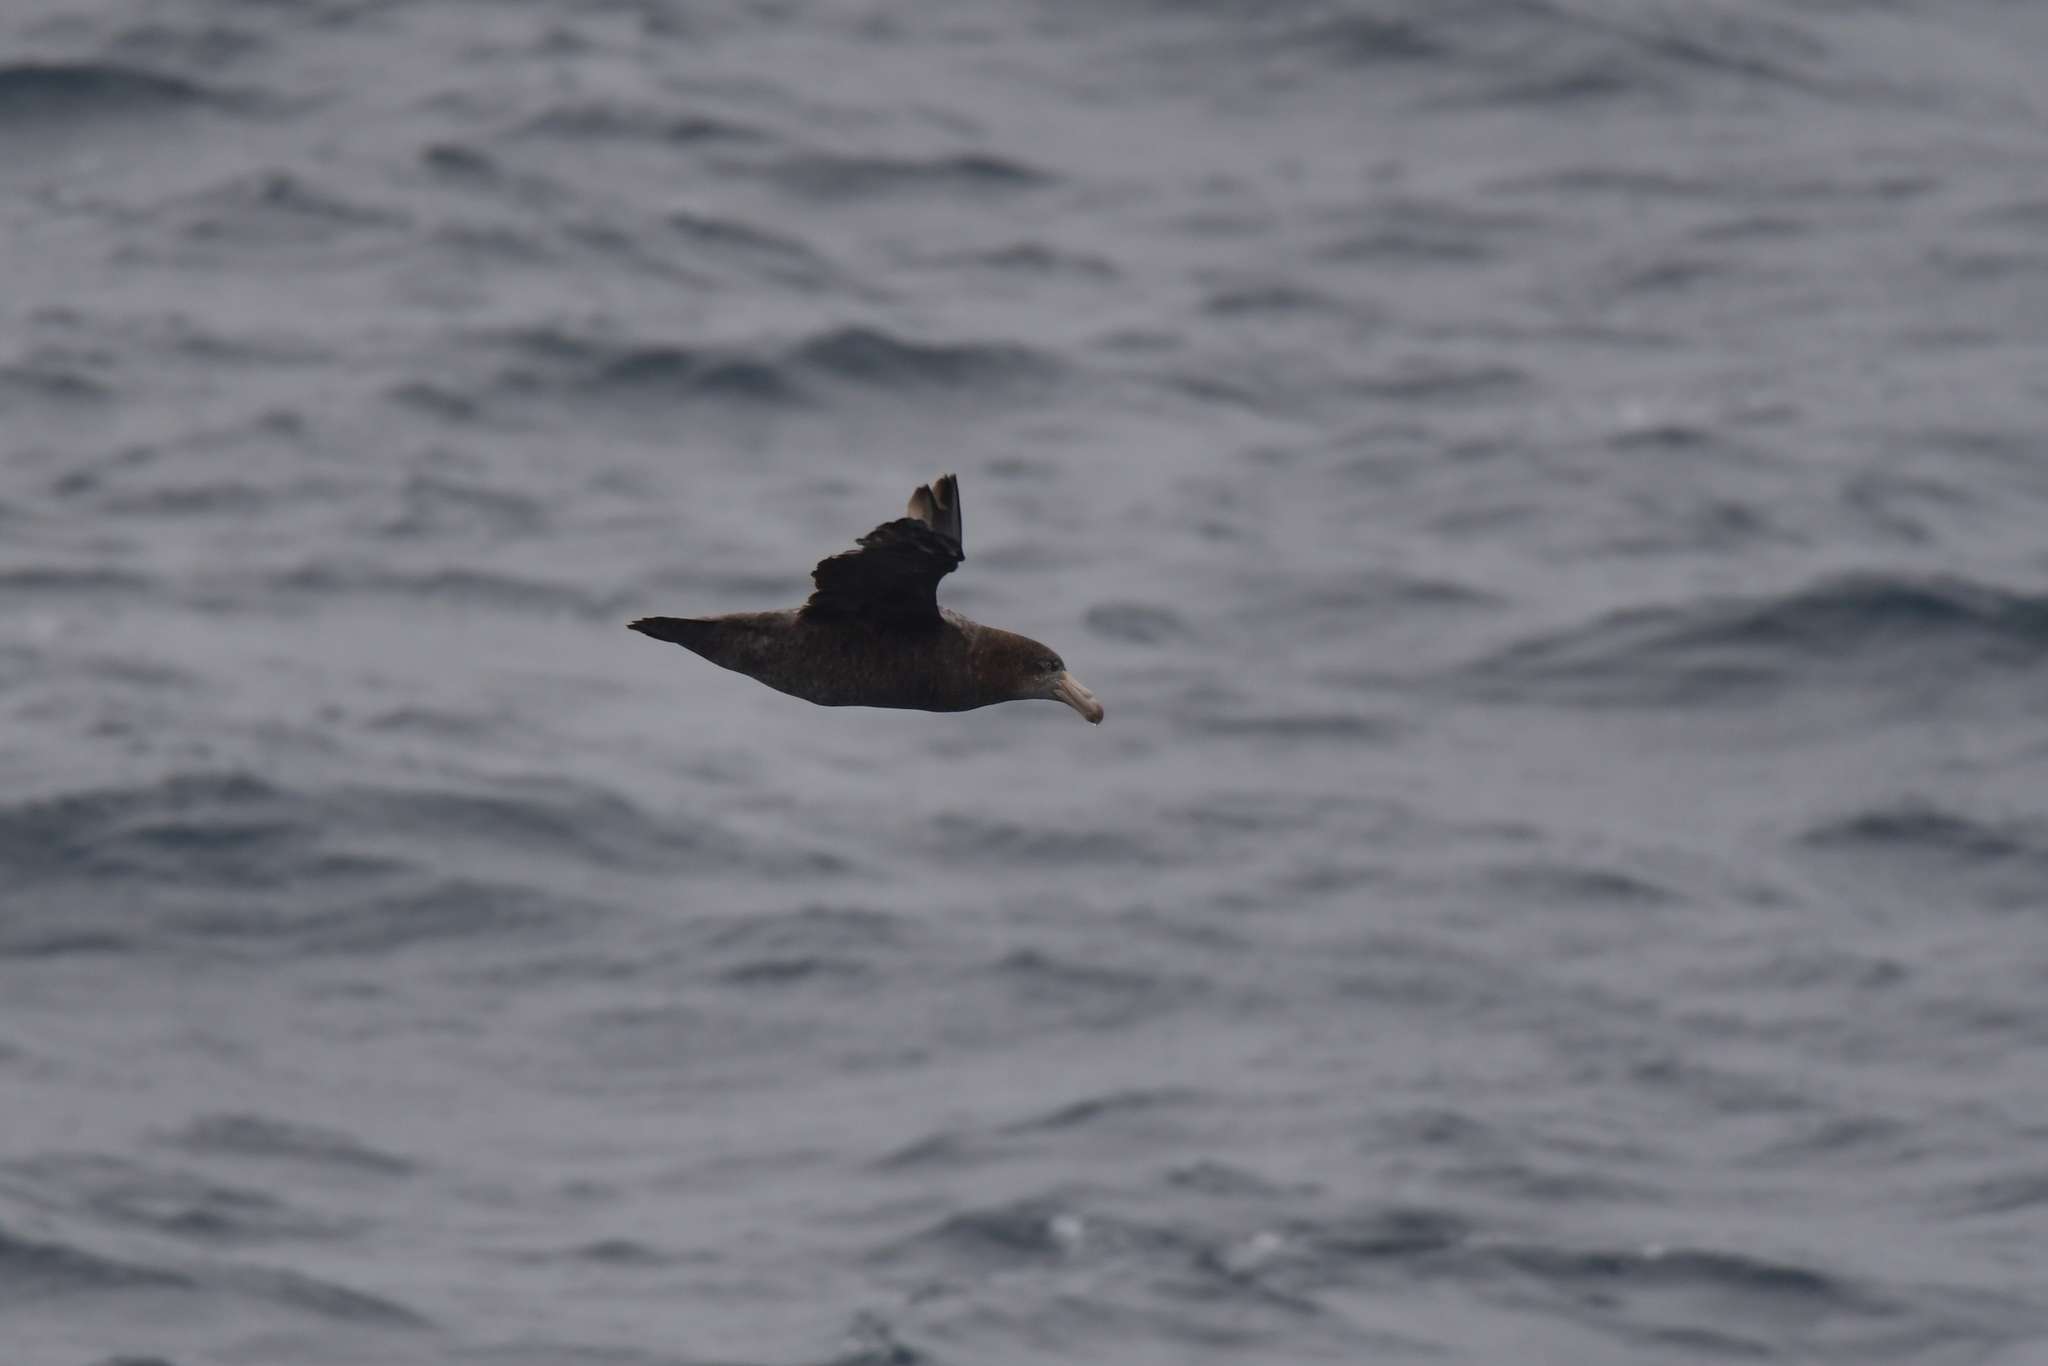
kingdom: Animalia
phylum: Chordata
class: Aves
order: Procellariiformes
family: Procellariidae
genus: Macronectes
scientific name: Macronectes halli
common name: Northern giant petrel
